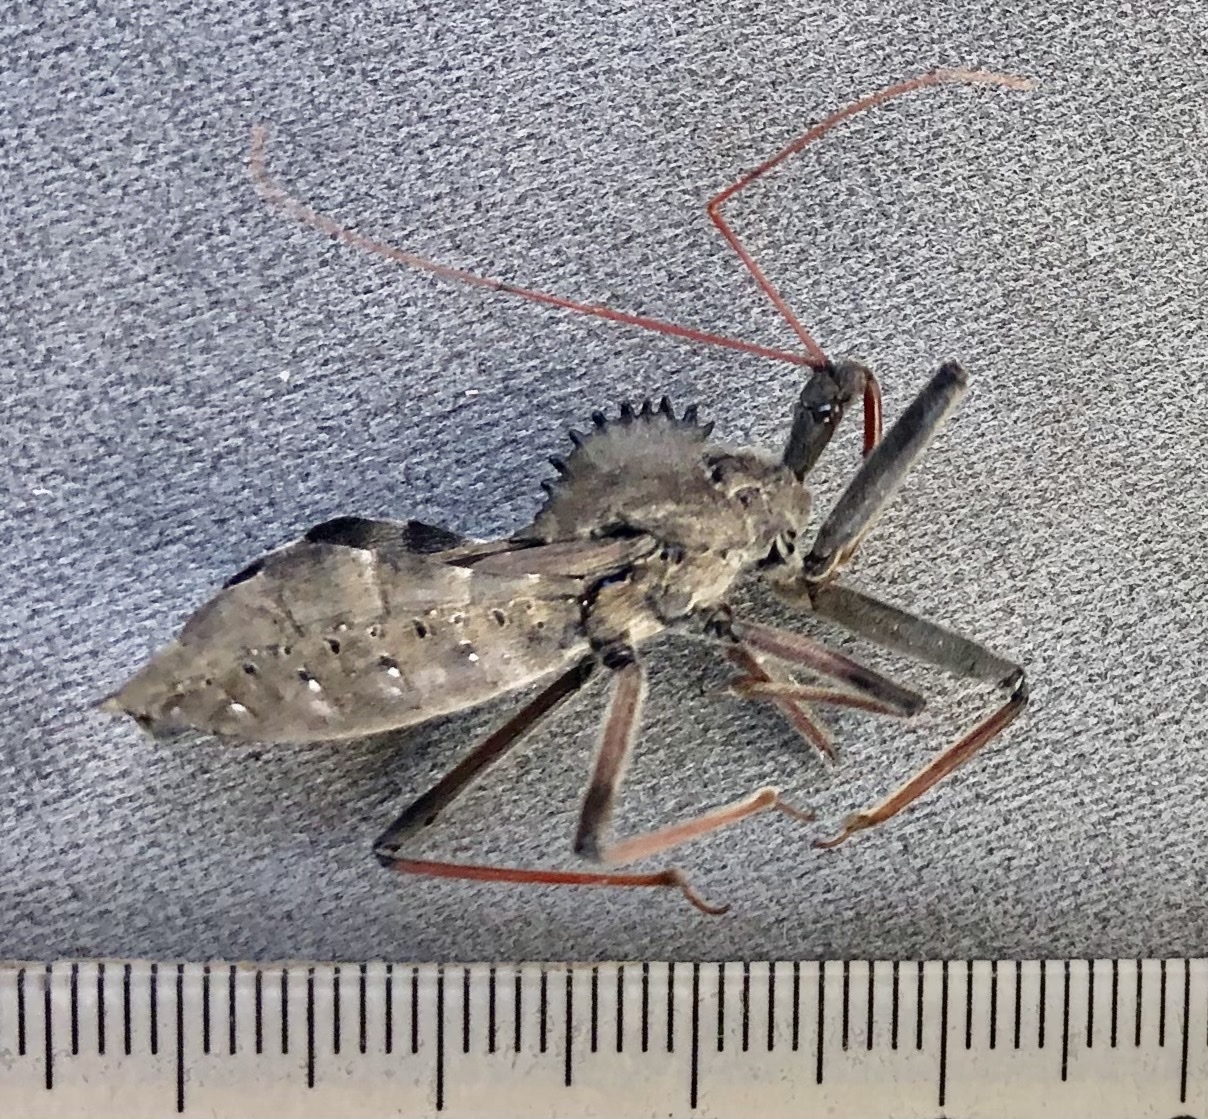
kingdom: Animalia
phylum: Arthropoda
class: Insecta
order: Hemiptera
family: Reduviidae
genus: Arilus
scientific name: Arilus cristatus
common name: North american wheel bug
